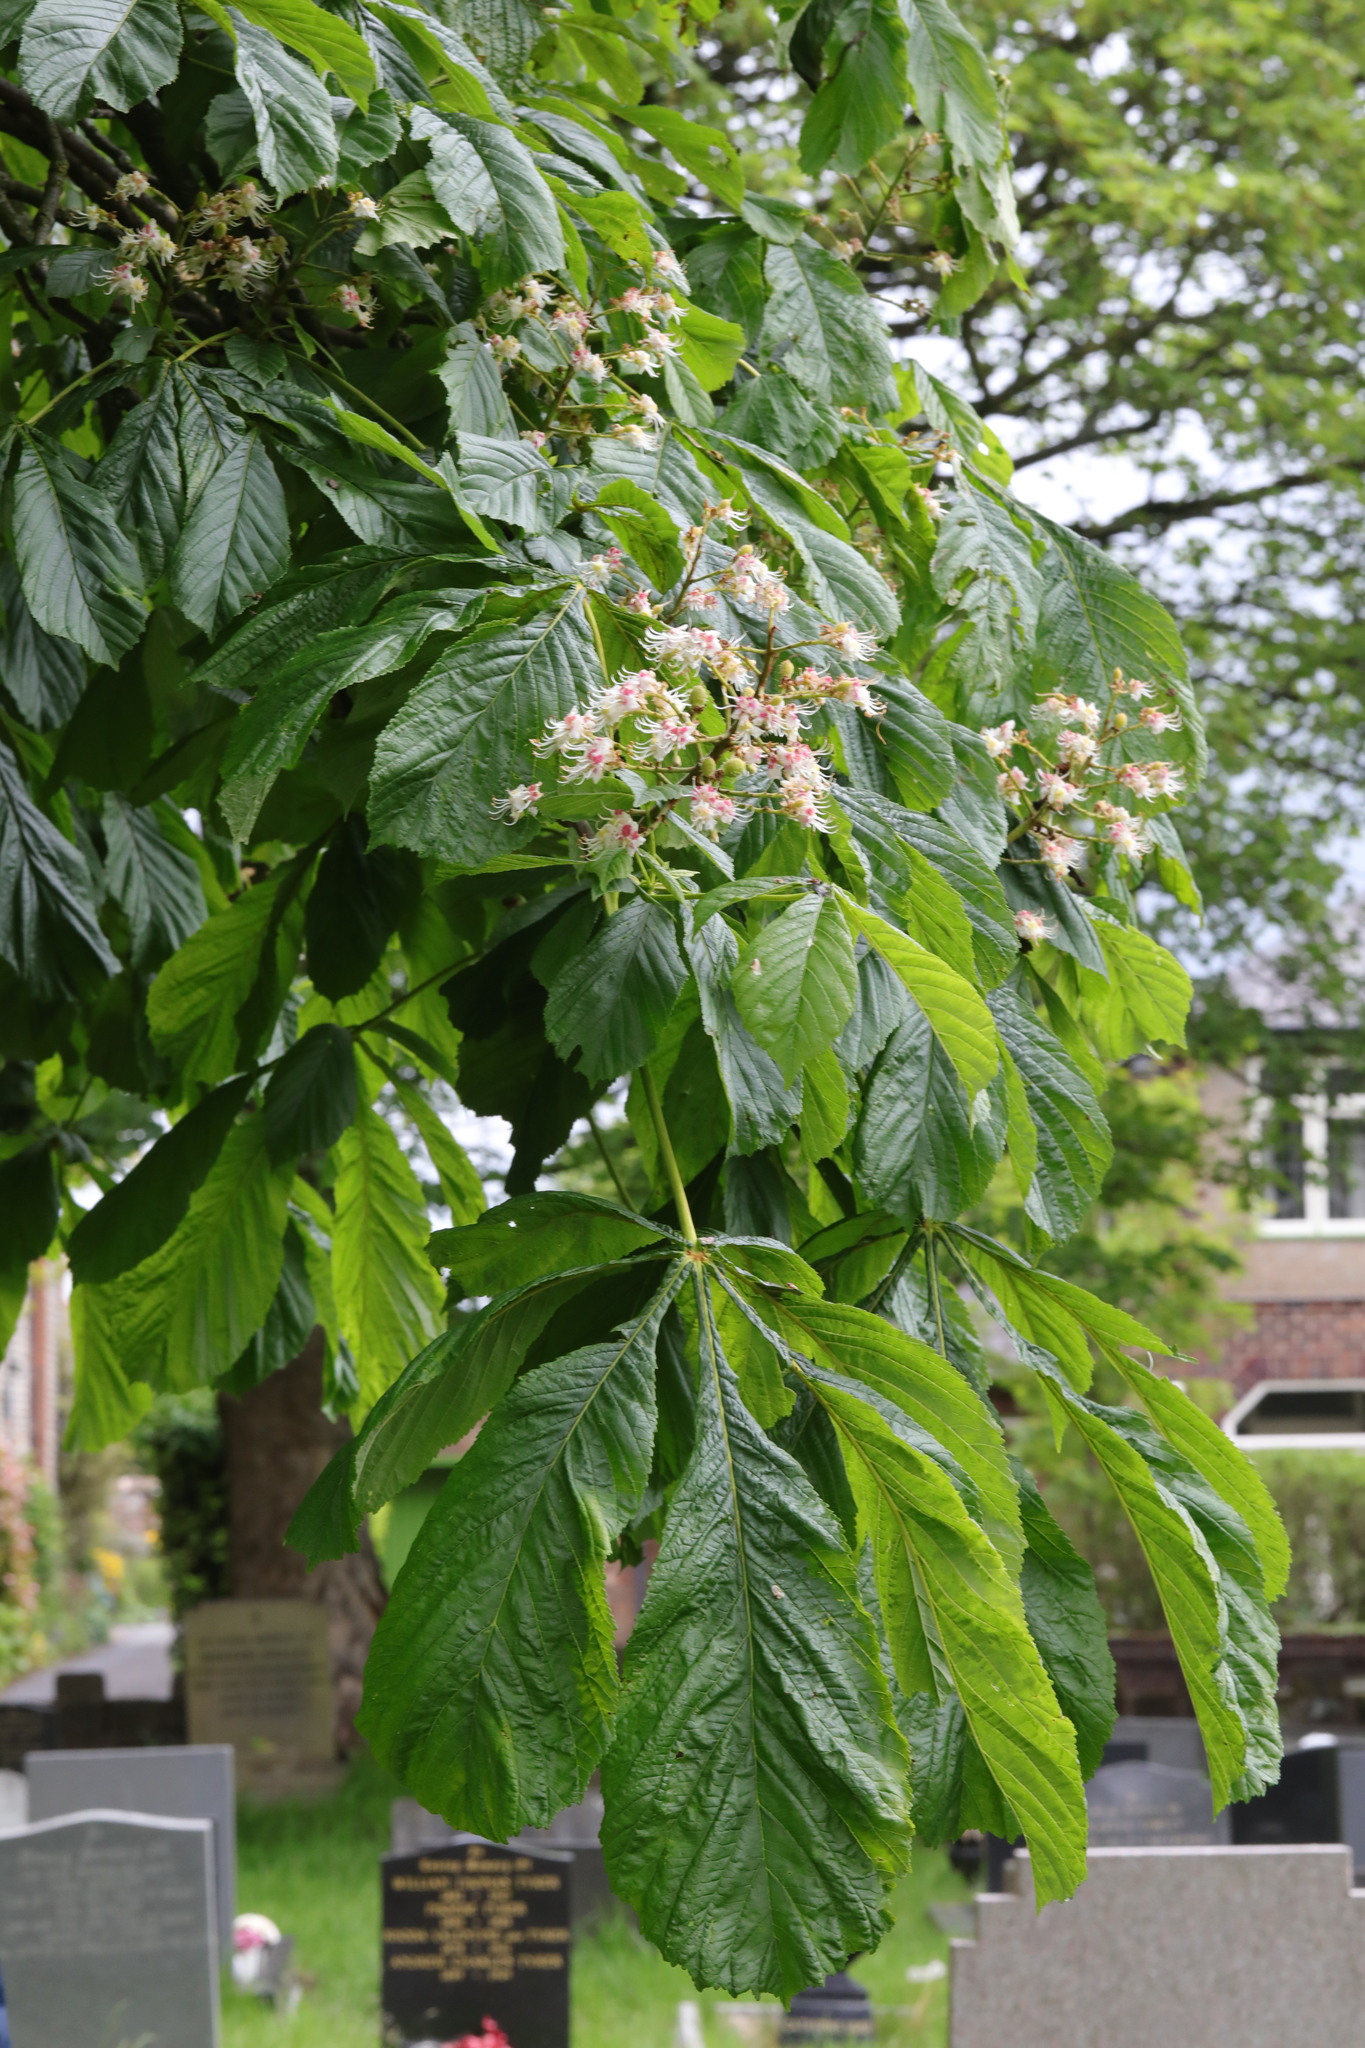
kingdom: Plantae
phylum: Tracheophyta
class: Magnoliopsida
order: Sapindales
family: Sapindaceae
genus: Aesculus
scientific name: Aesculus hippocastanum
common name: Horse-chestnut
